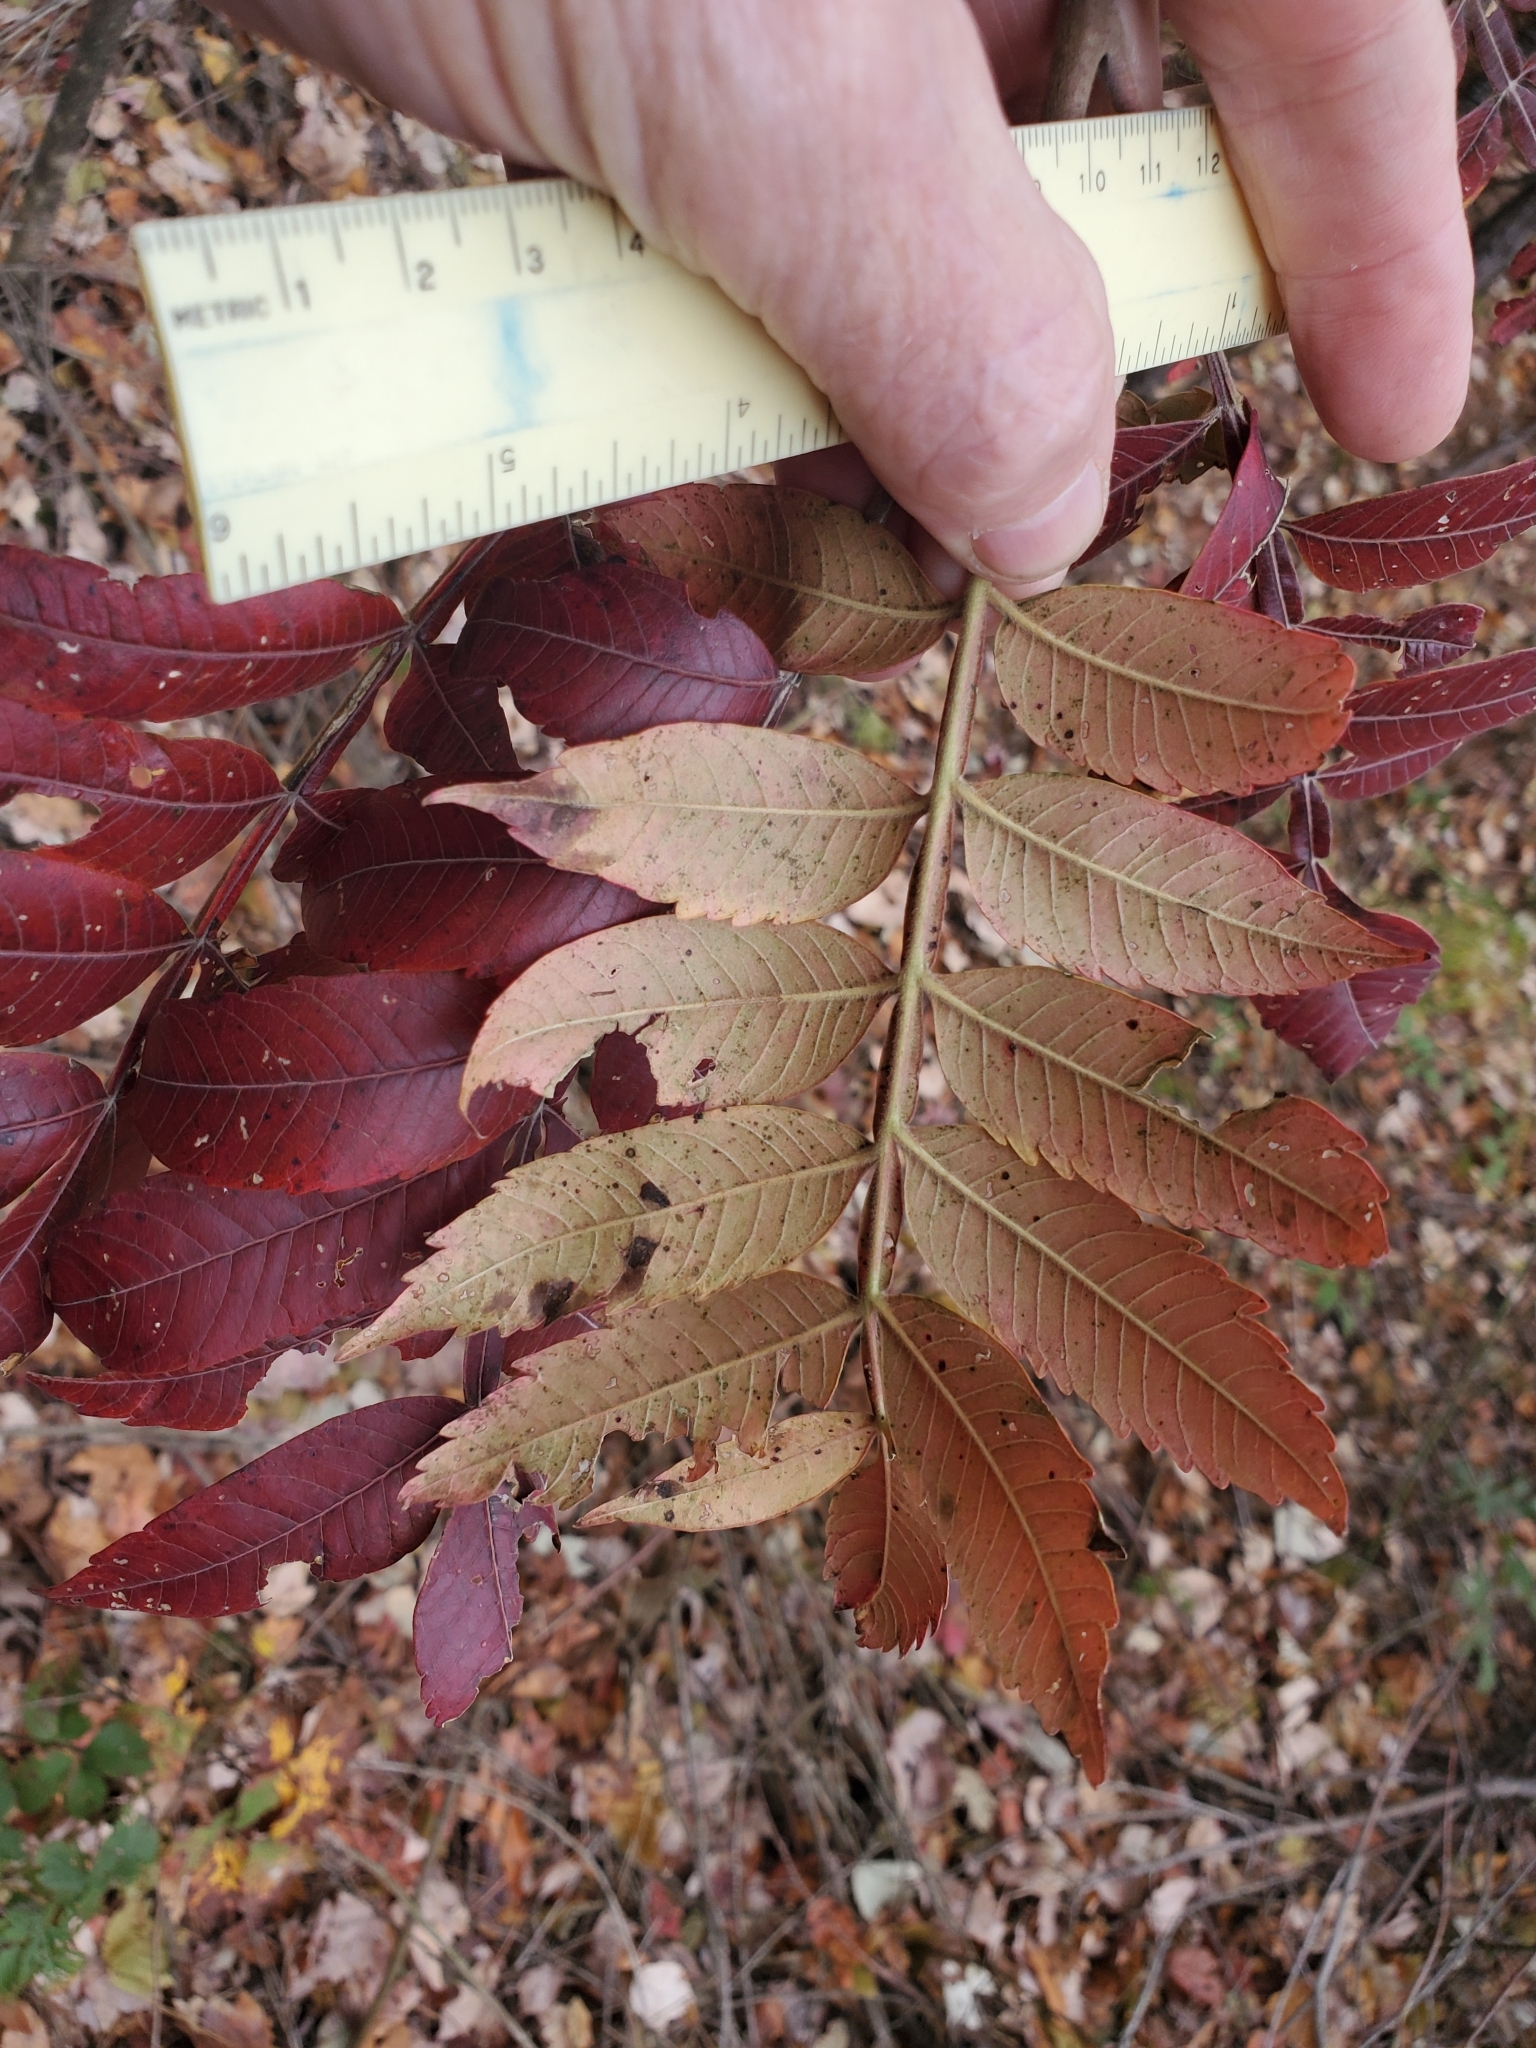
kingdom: Plantae
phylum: Tracheophyta
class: Magnoliopsida
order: Sapindales
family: Anacardiaceae
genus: Rhus
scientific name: Rhus copallina
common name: Shining sumac
